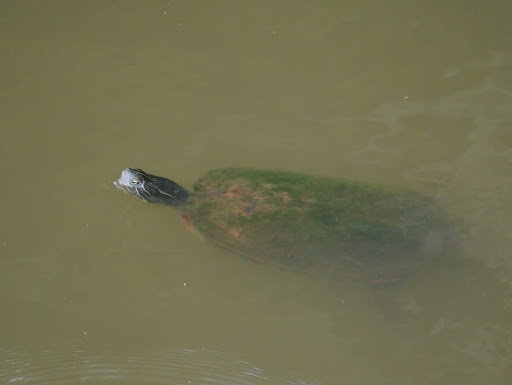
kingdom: Animalia
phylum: Chordata
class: Testudines
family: Emydidae
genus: Pseudemys
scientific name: Pseudemys rubriventris
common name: American red-bellied turtle
